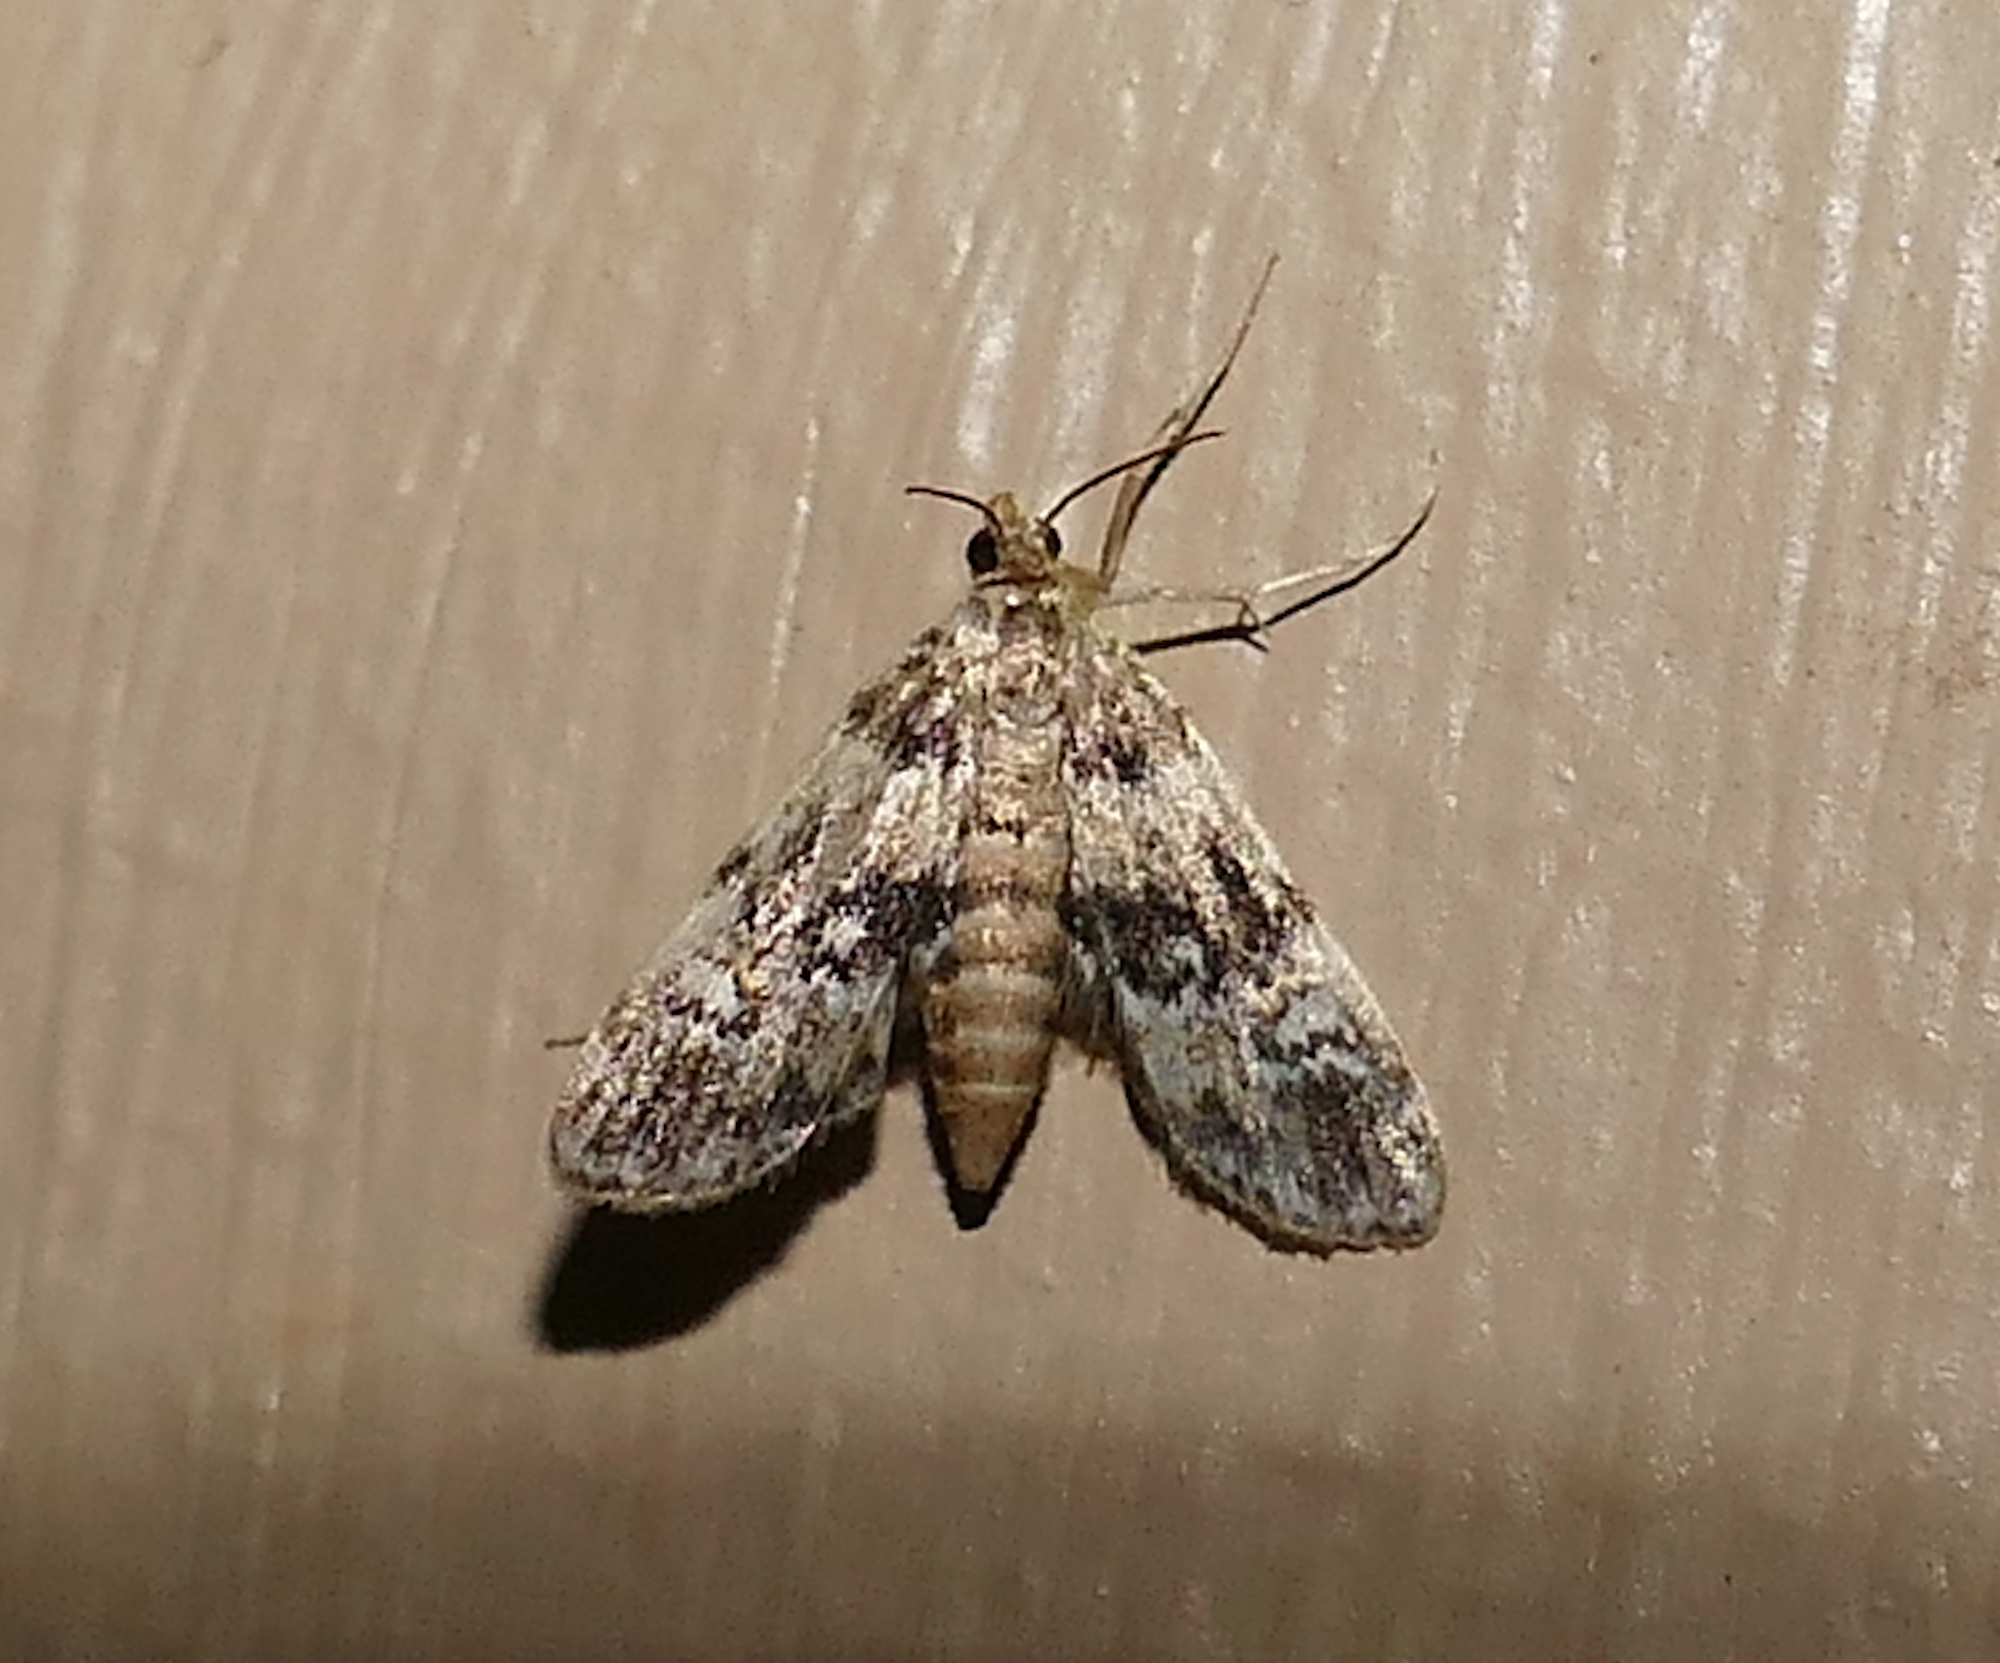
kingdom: Animalia
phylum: Arthropoda
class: Insecta
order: Lepidoptera
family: Crambidae
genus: Elophila
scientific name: Elophila gyralis
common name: Waterlily borer moth
